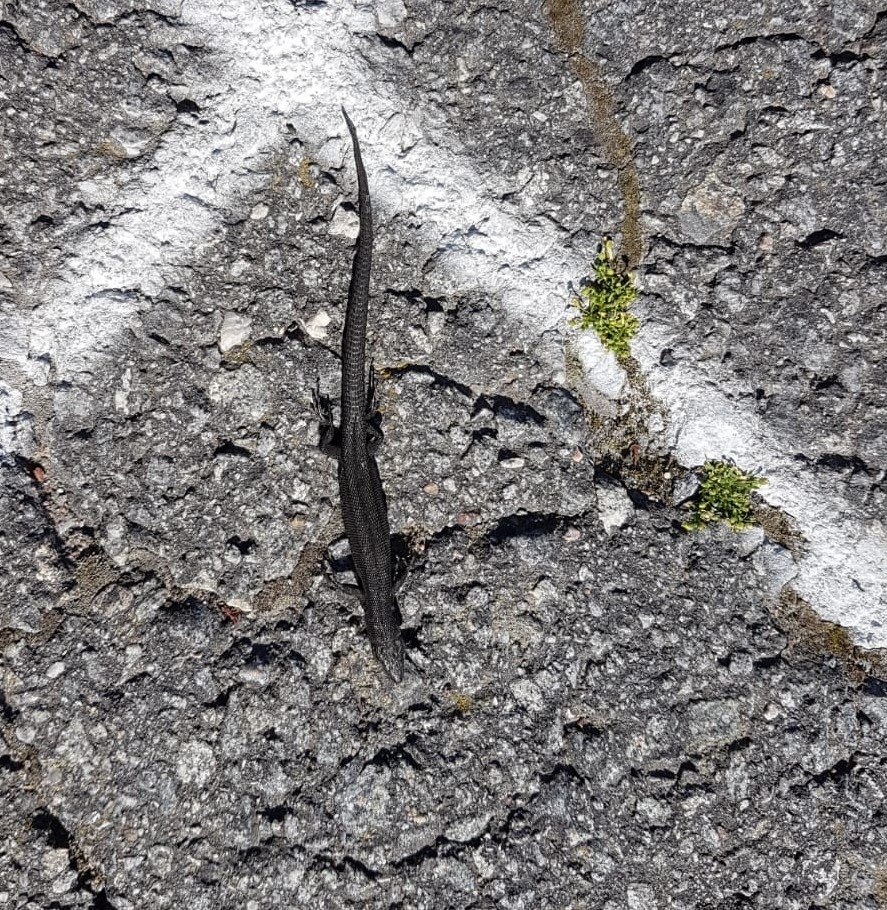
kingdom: Animalia
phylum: Chordata
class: Squamata
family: Lacertidae
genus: Zootoca
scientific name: Zootoca vivipara
